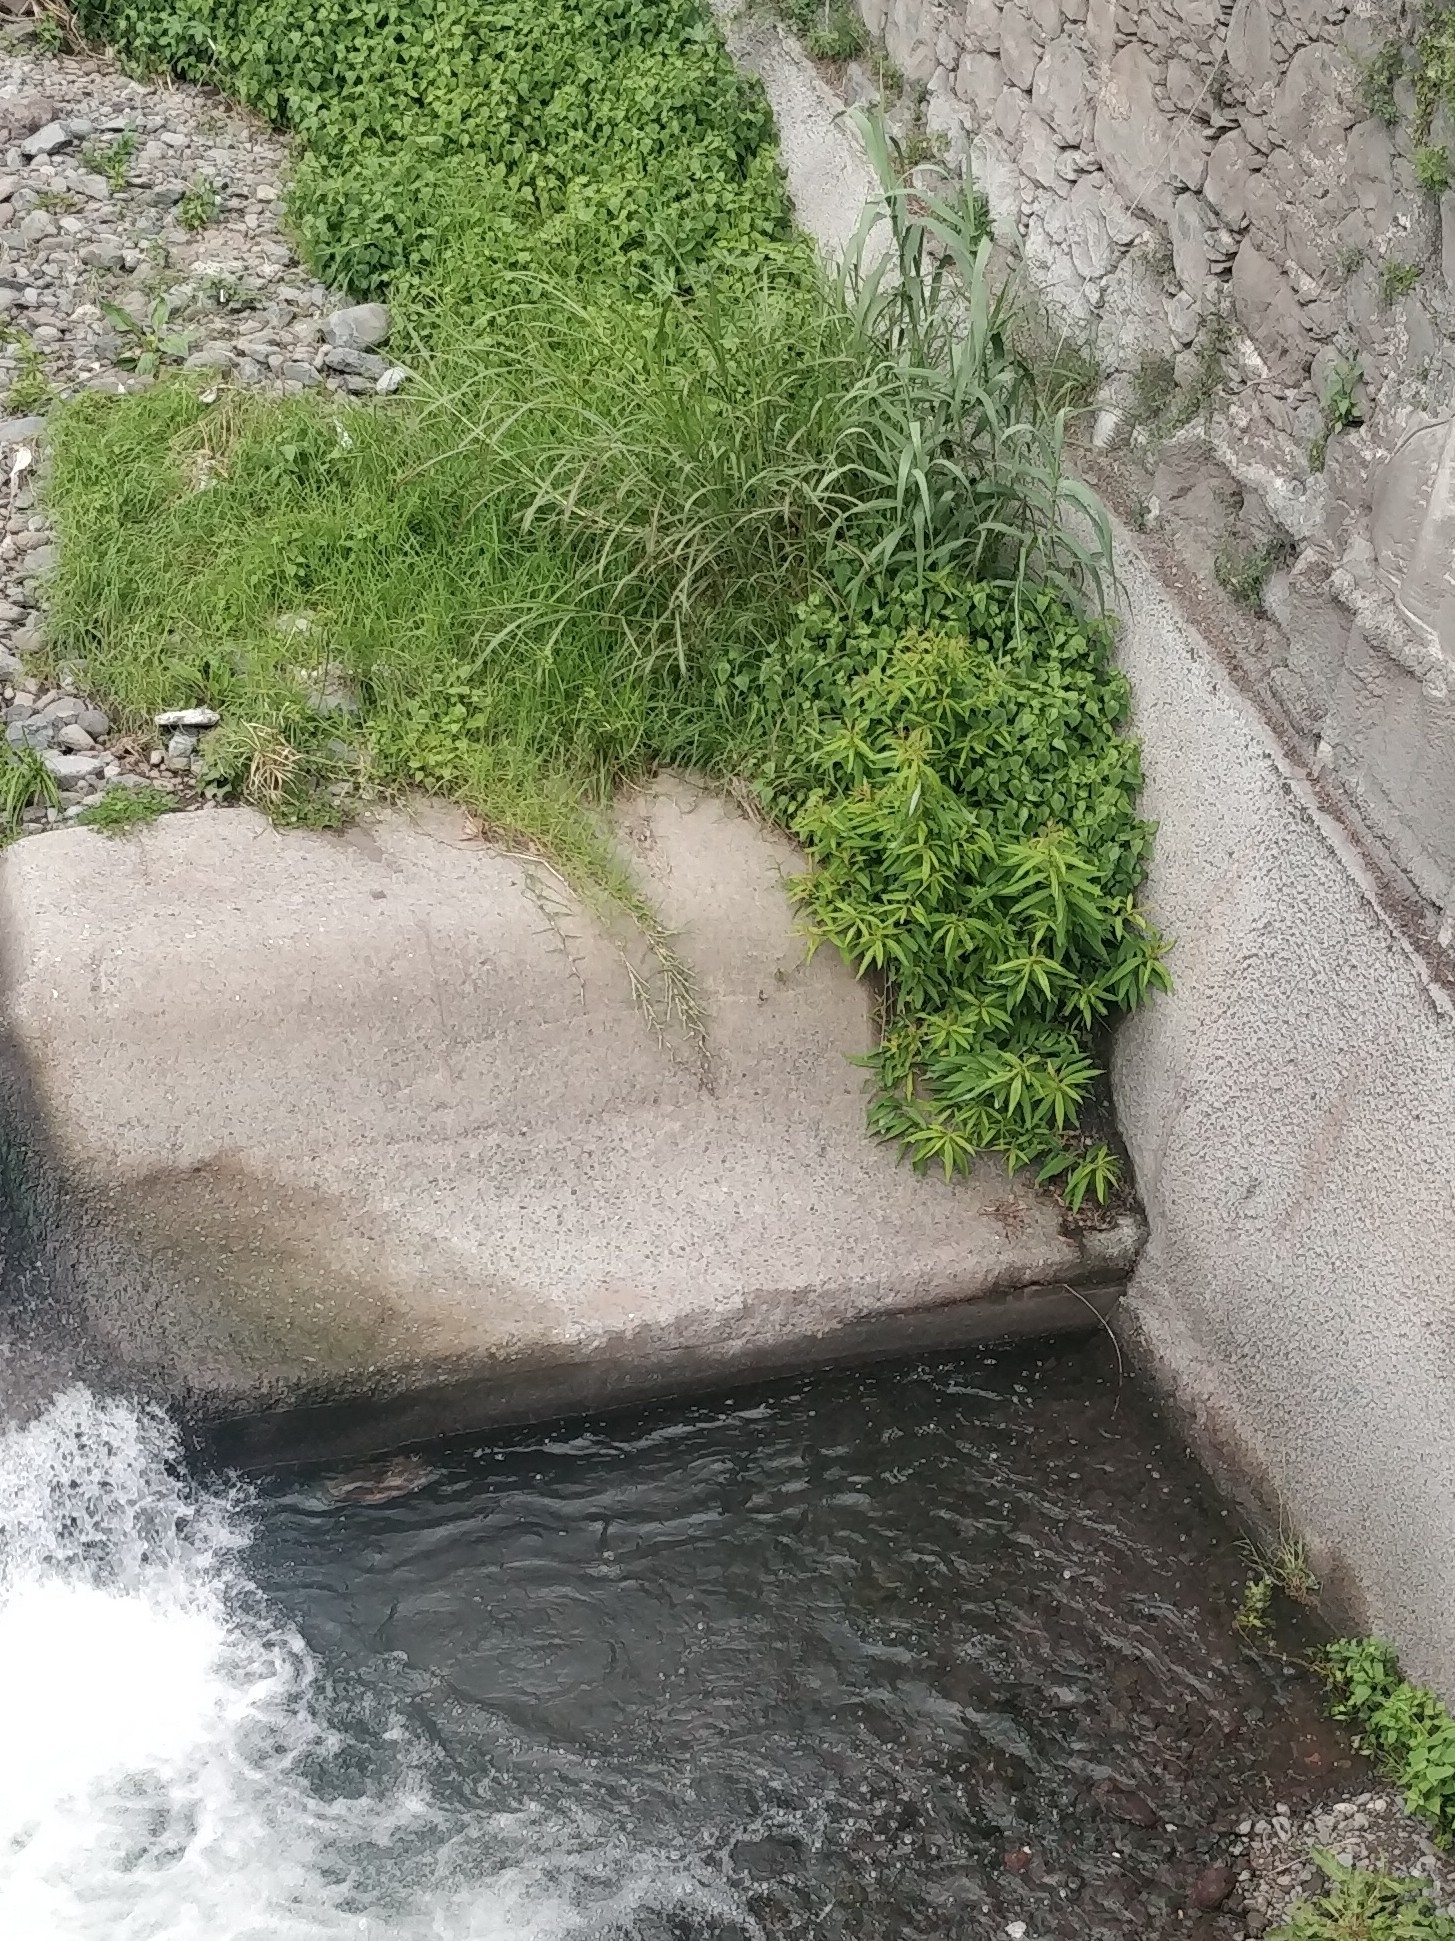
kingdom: Plantae
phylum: Tracheophyta
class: Magnoliopsida
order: Malpighiales
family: Salicaceae
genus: Salix
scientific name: Salix canariensis
